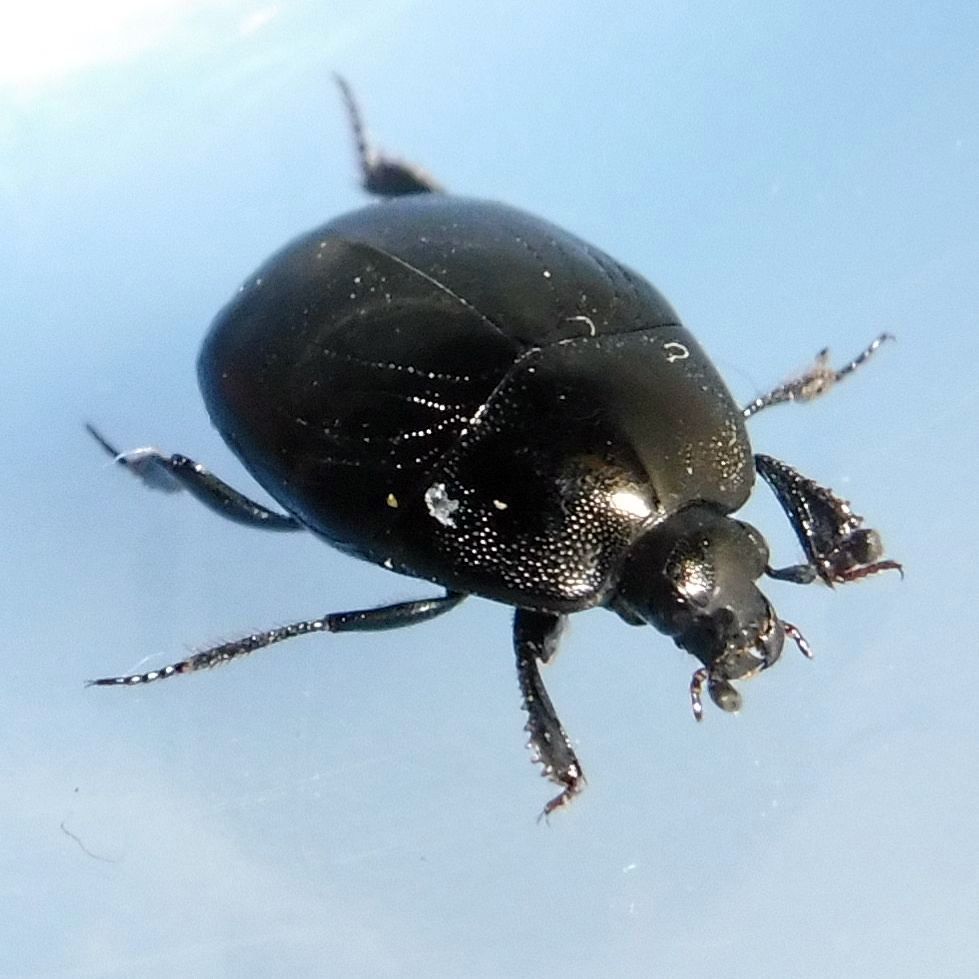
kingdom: Animalia
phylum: Arthropoda
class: Insecta
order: Coleoptera
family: Histeridae
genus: Saprinus
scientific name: Saprinus semistriatus
